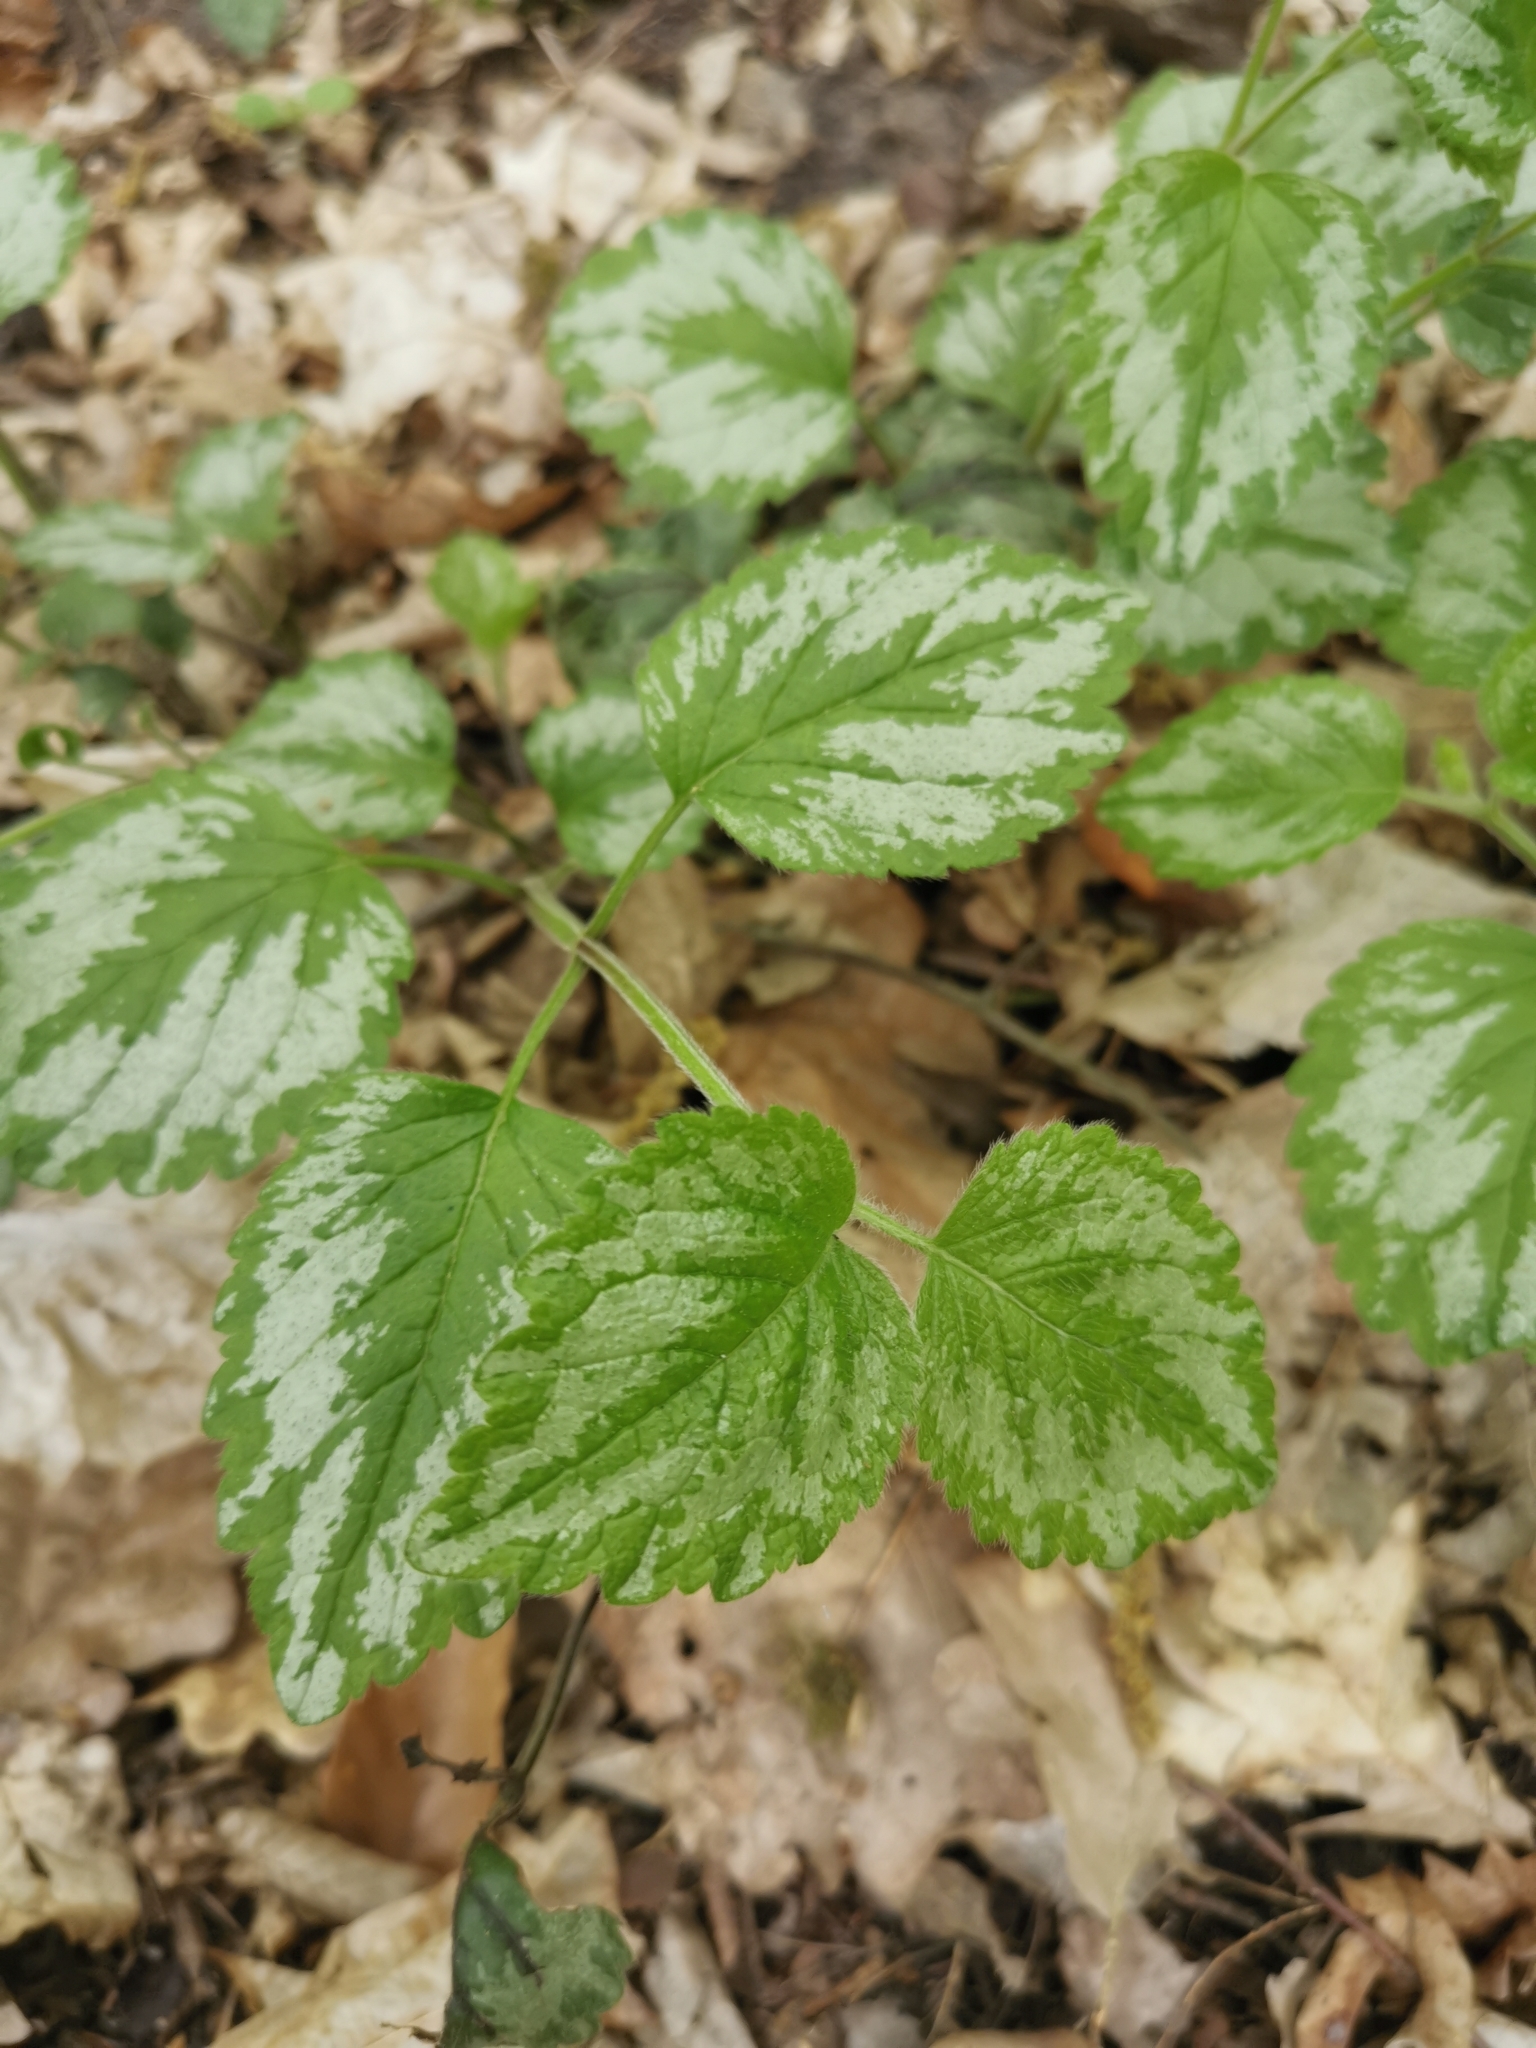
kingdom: Plantae
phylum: Tracheophyta
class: Magnoliopsida
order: Lamiales
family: Lamiaceae
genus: Lamium
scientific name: Lamium galeobdolon
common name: Yellow archangel
